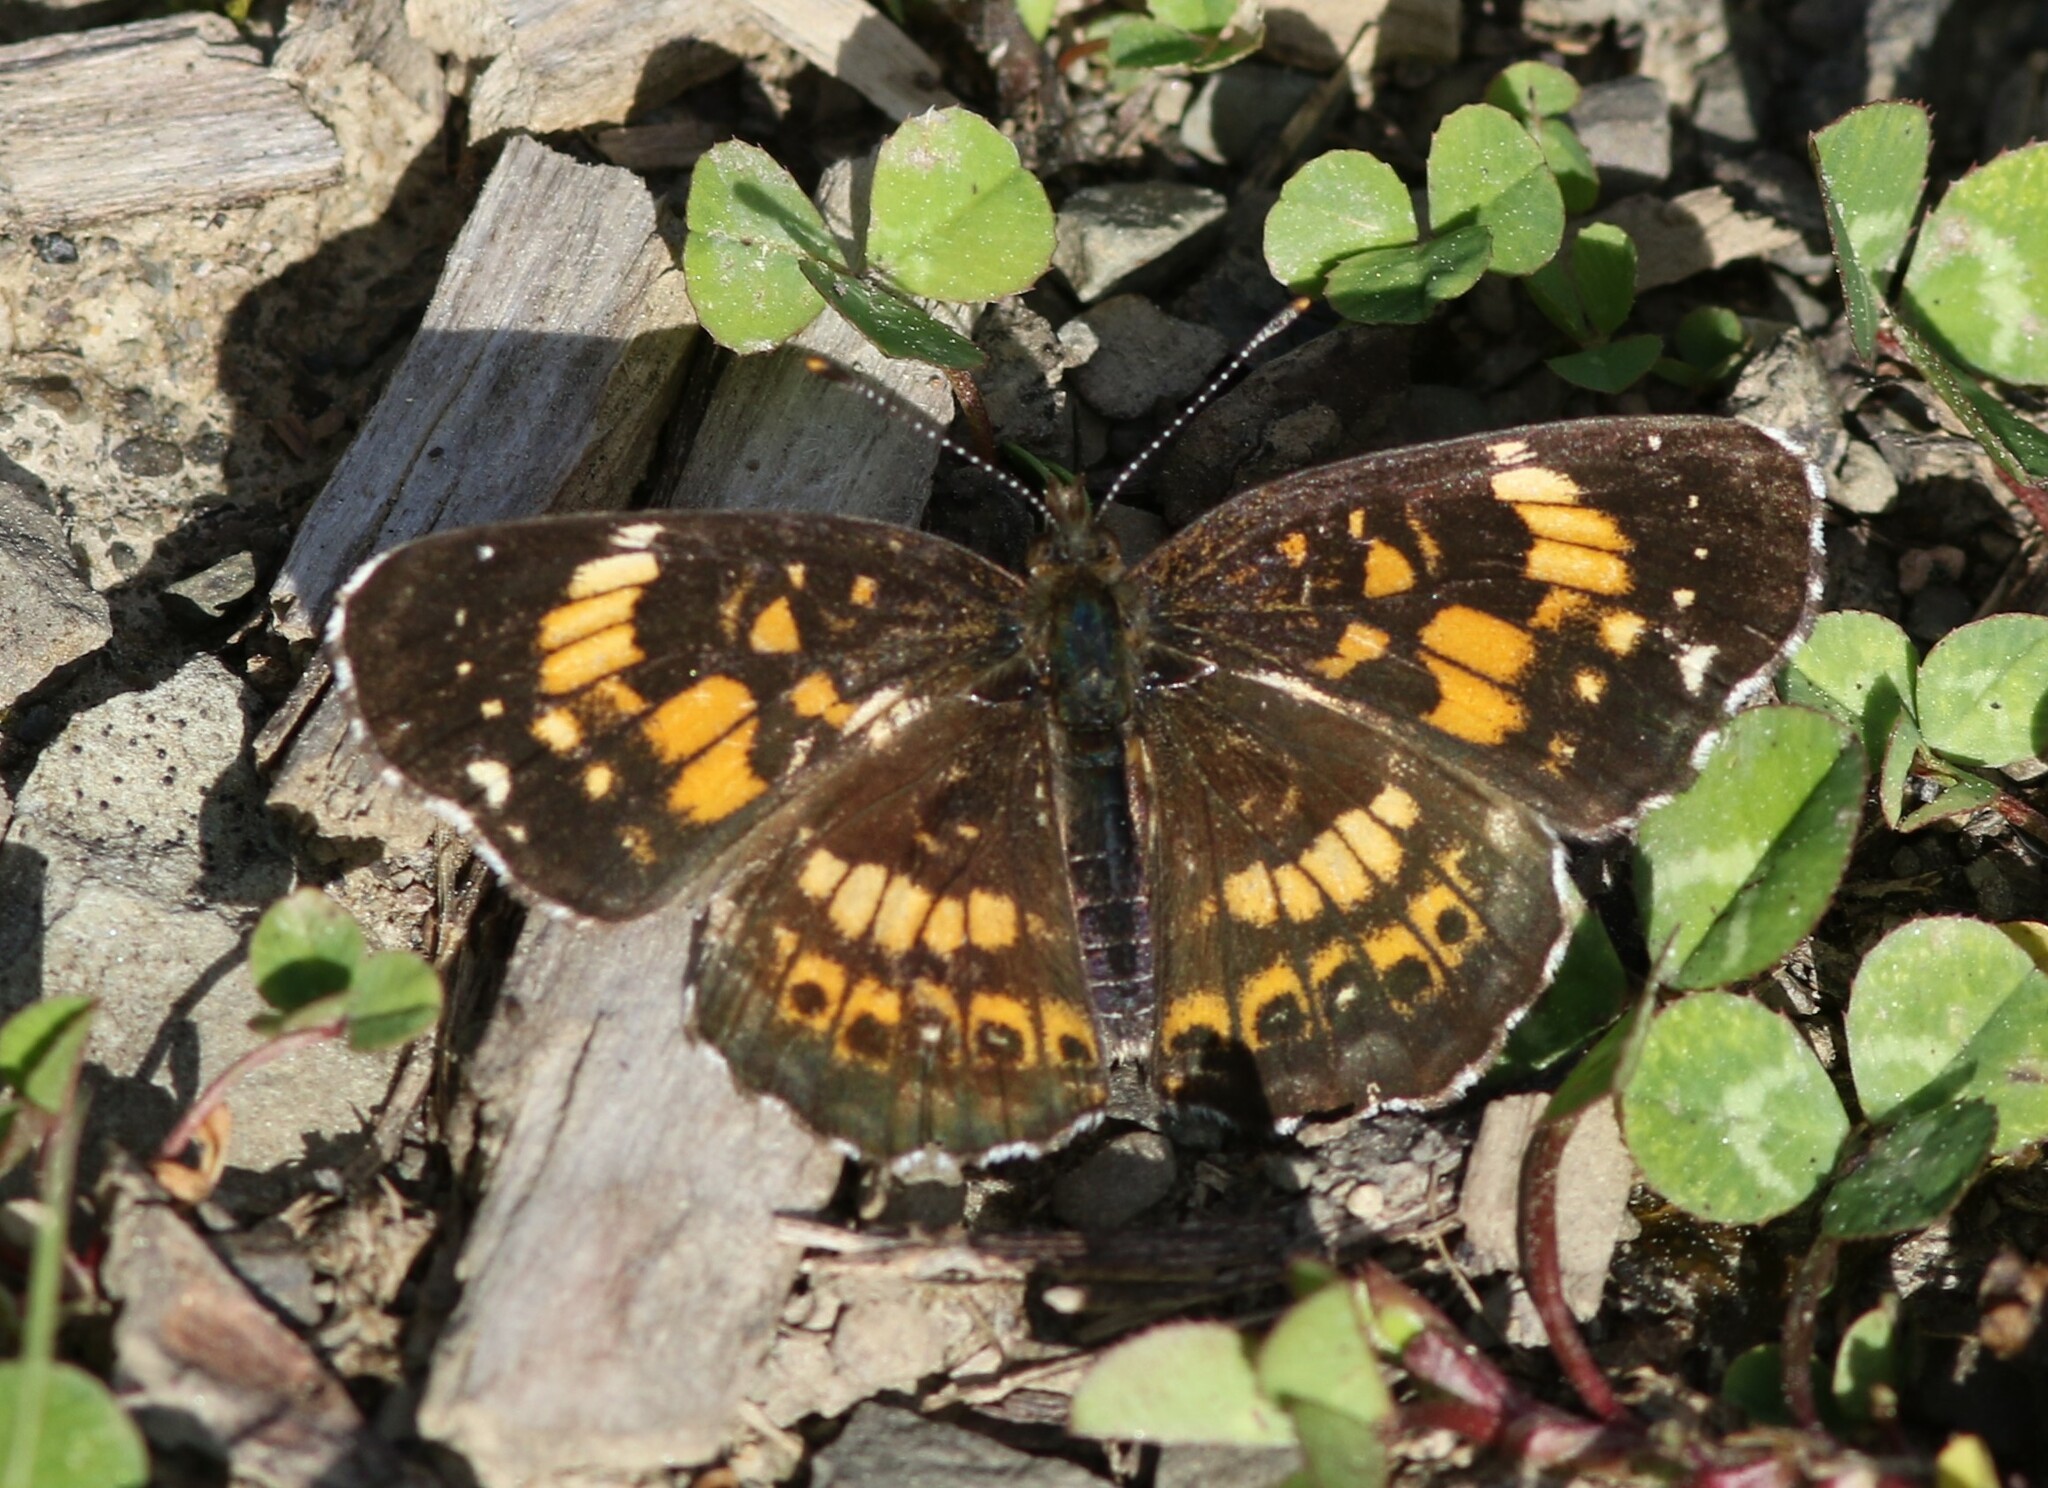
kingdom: Animalia
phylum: Arthropoda
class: Insecta
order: Lepidoptera
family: Nymphalidae
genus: Chlosyne
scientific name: Chlosyne nycteis
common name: Silvery checkerspot
